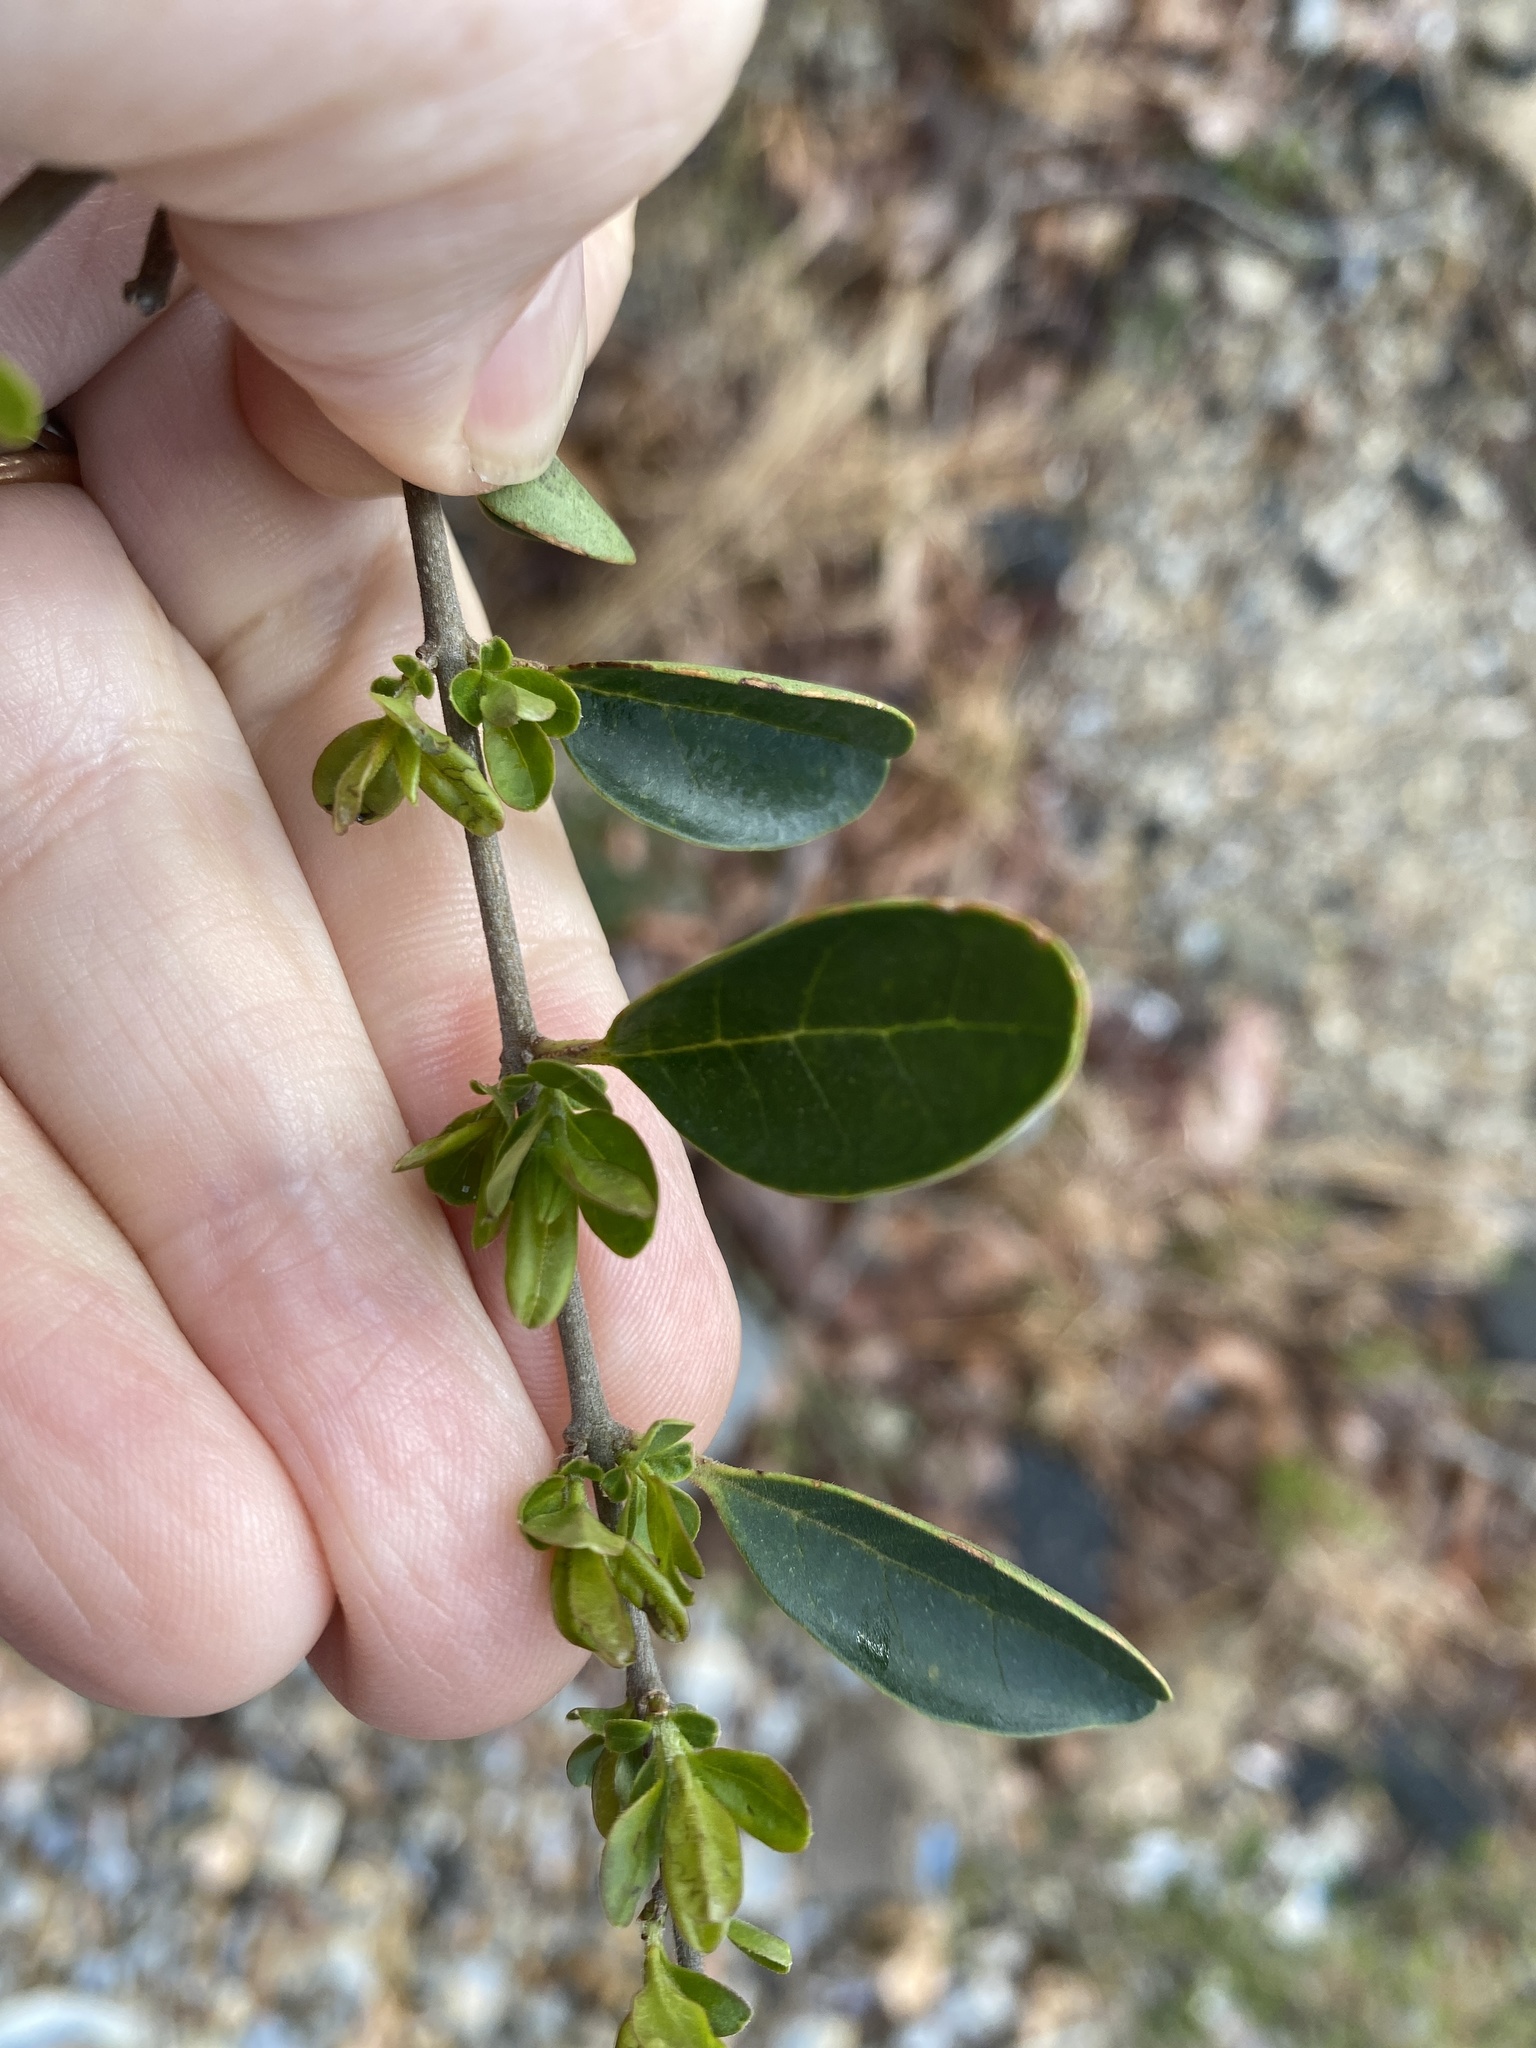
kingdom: Plantae
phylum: Tracheophyta
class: Magnoliopsida
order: Lamiales
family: Oleaceae
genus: Ligustrum
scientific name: Ligustrum sinense
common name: Chinese privet
